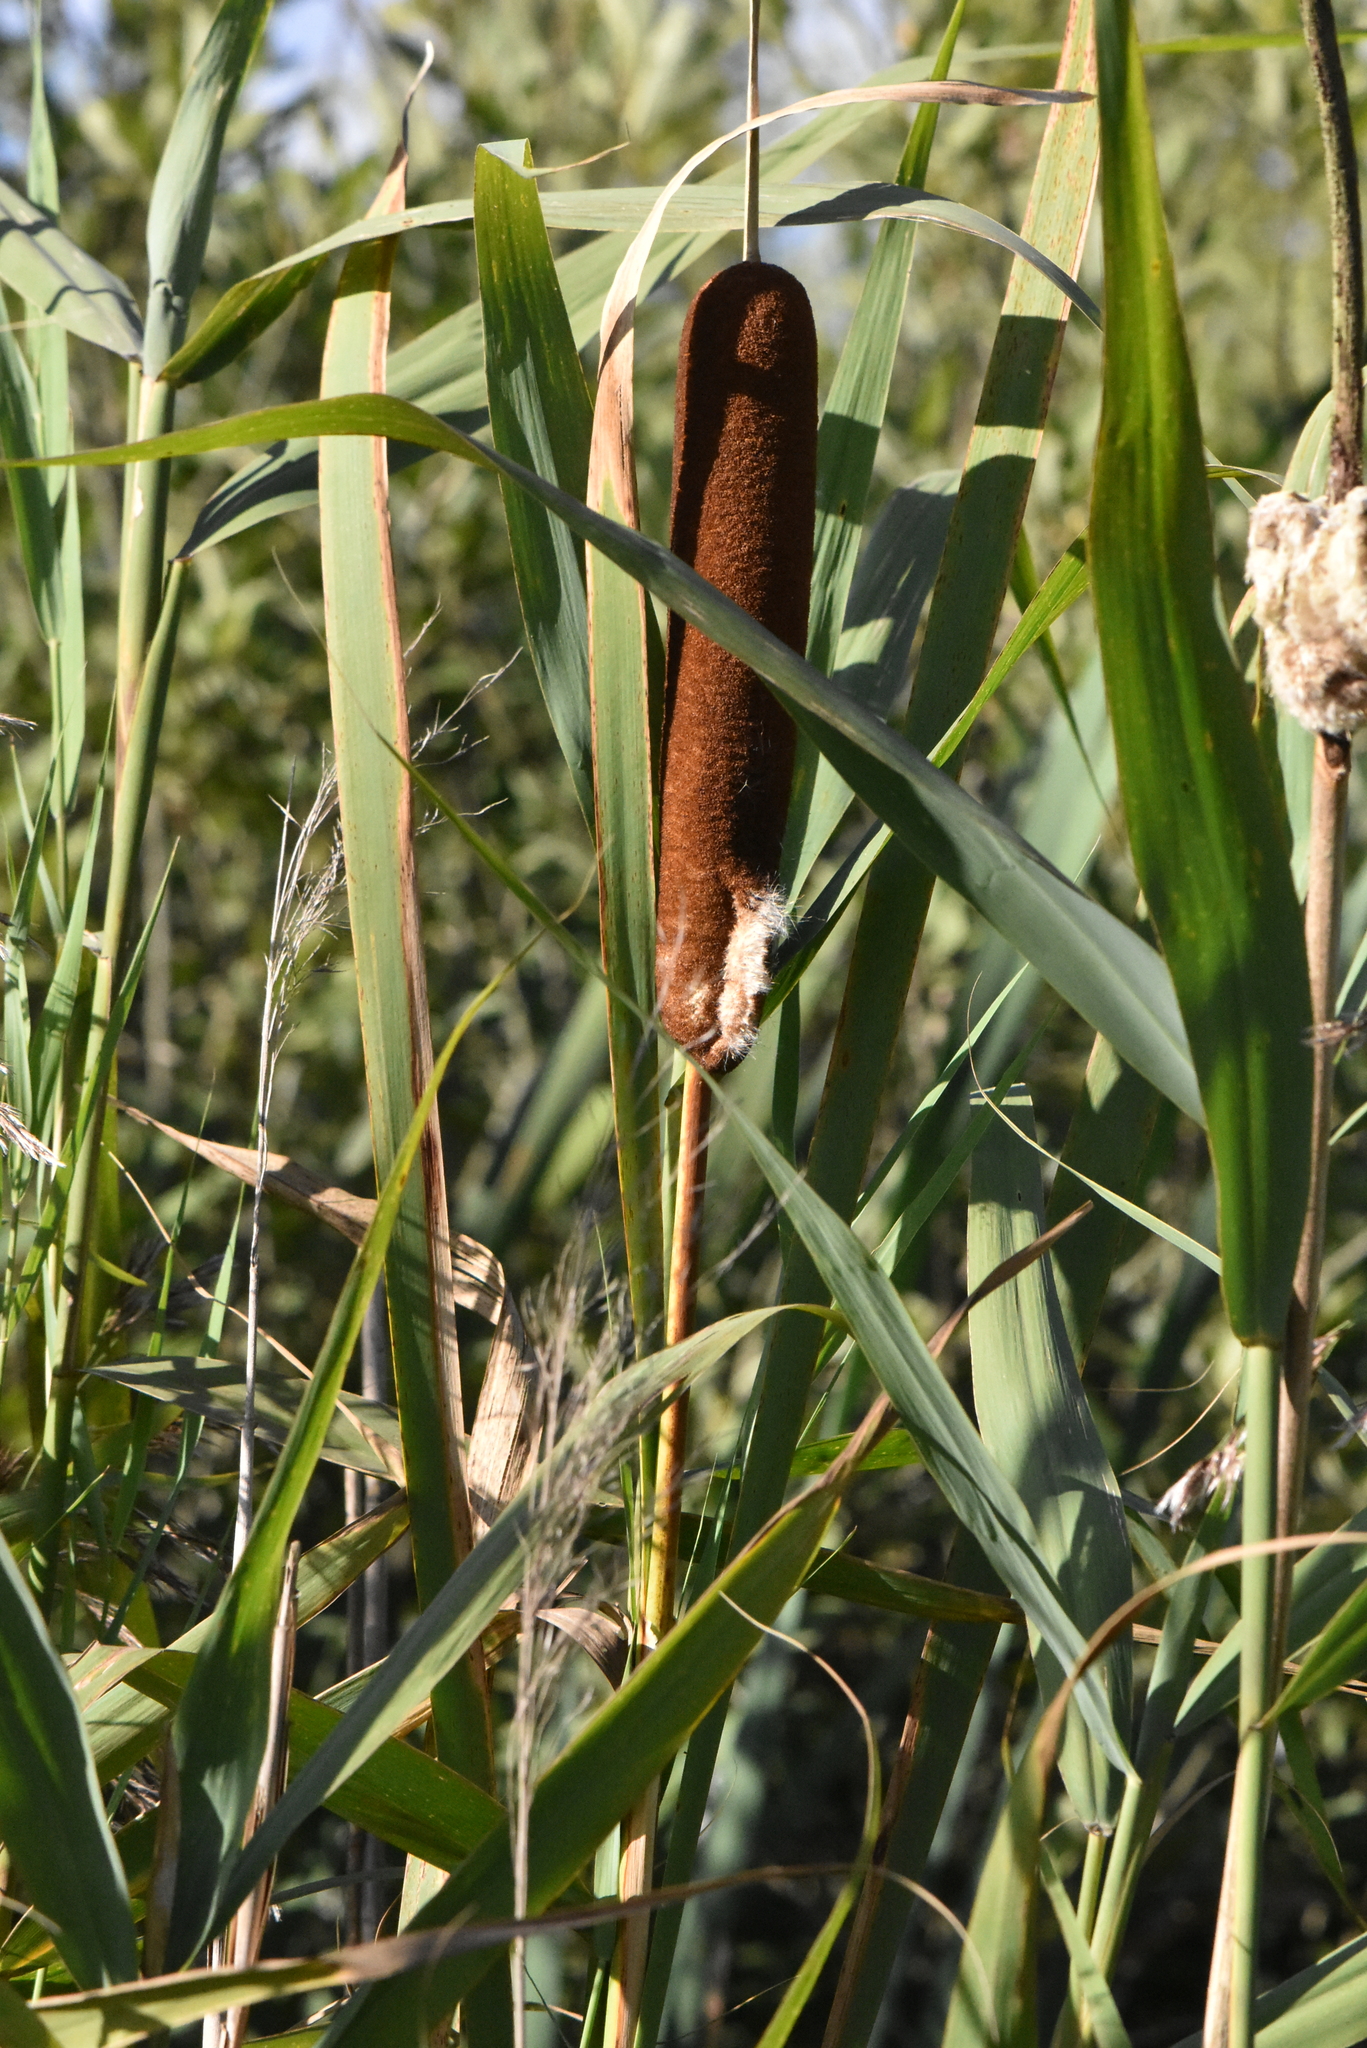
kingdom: Plantae
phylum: Tracheophyta
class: Liliopsida
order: Poales
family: Typhaceae
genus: Typha
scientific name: Typha latifolia
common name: Broadleaf cattail
